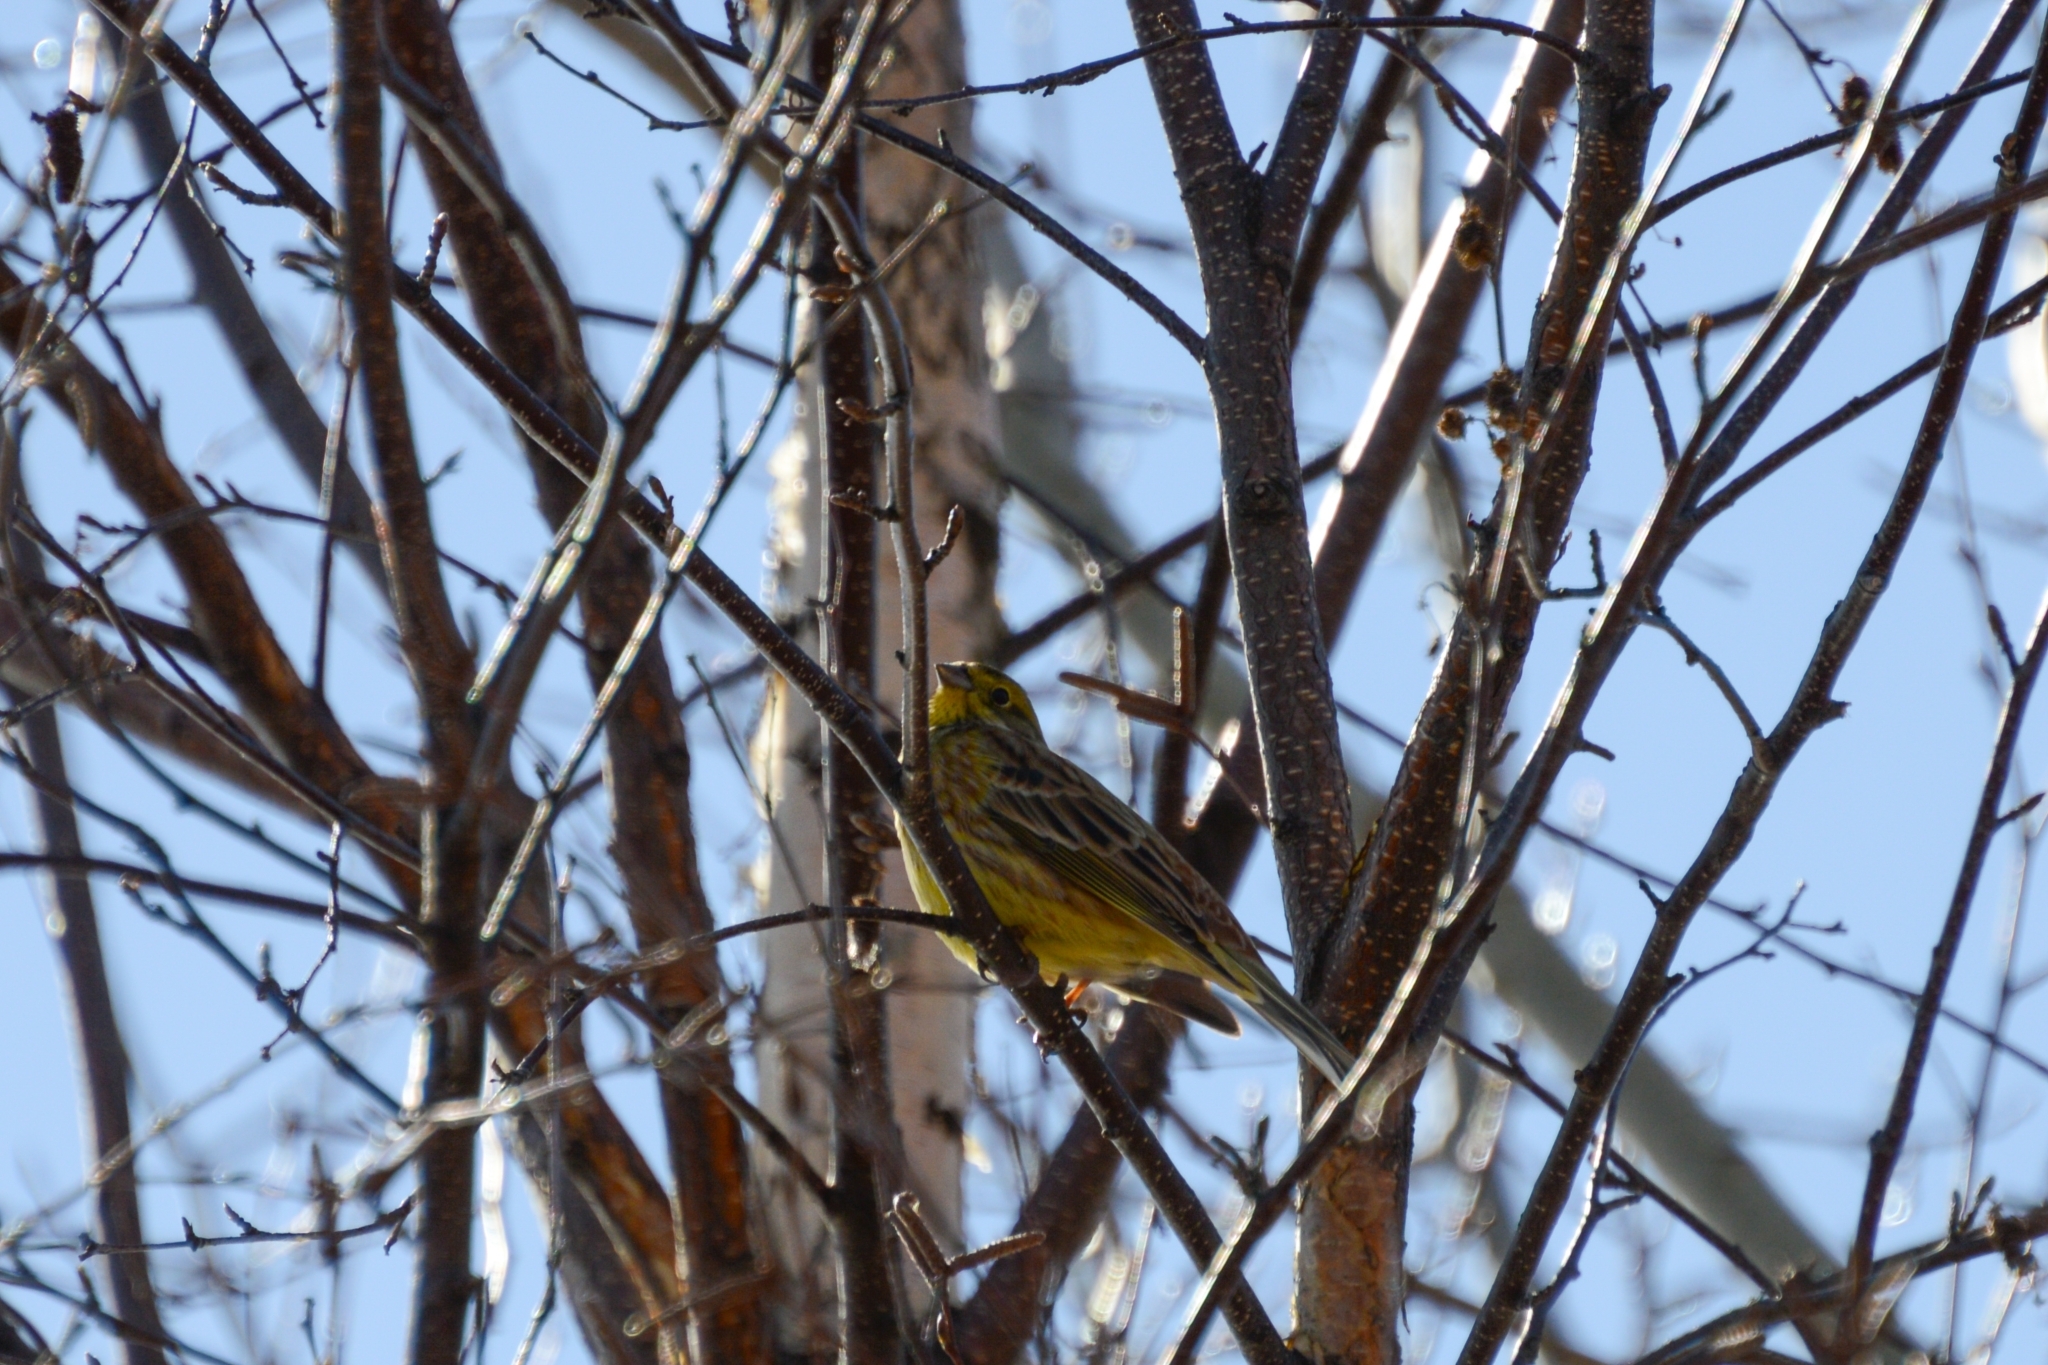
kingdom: Animalia
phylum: Chordata
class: Aves
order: Passeriformes
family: Emberizidae
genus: Emberiza
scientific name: Emberiza citrinella
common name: Yellowhammer
